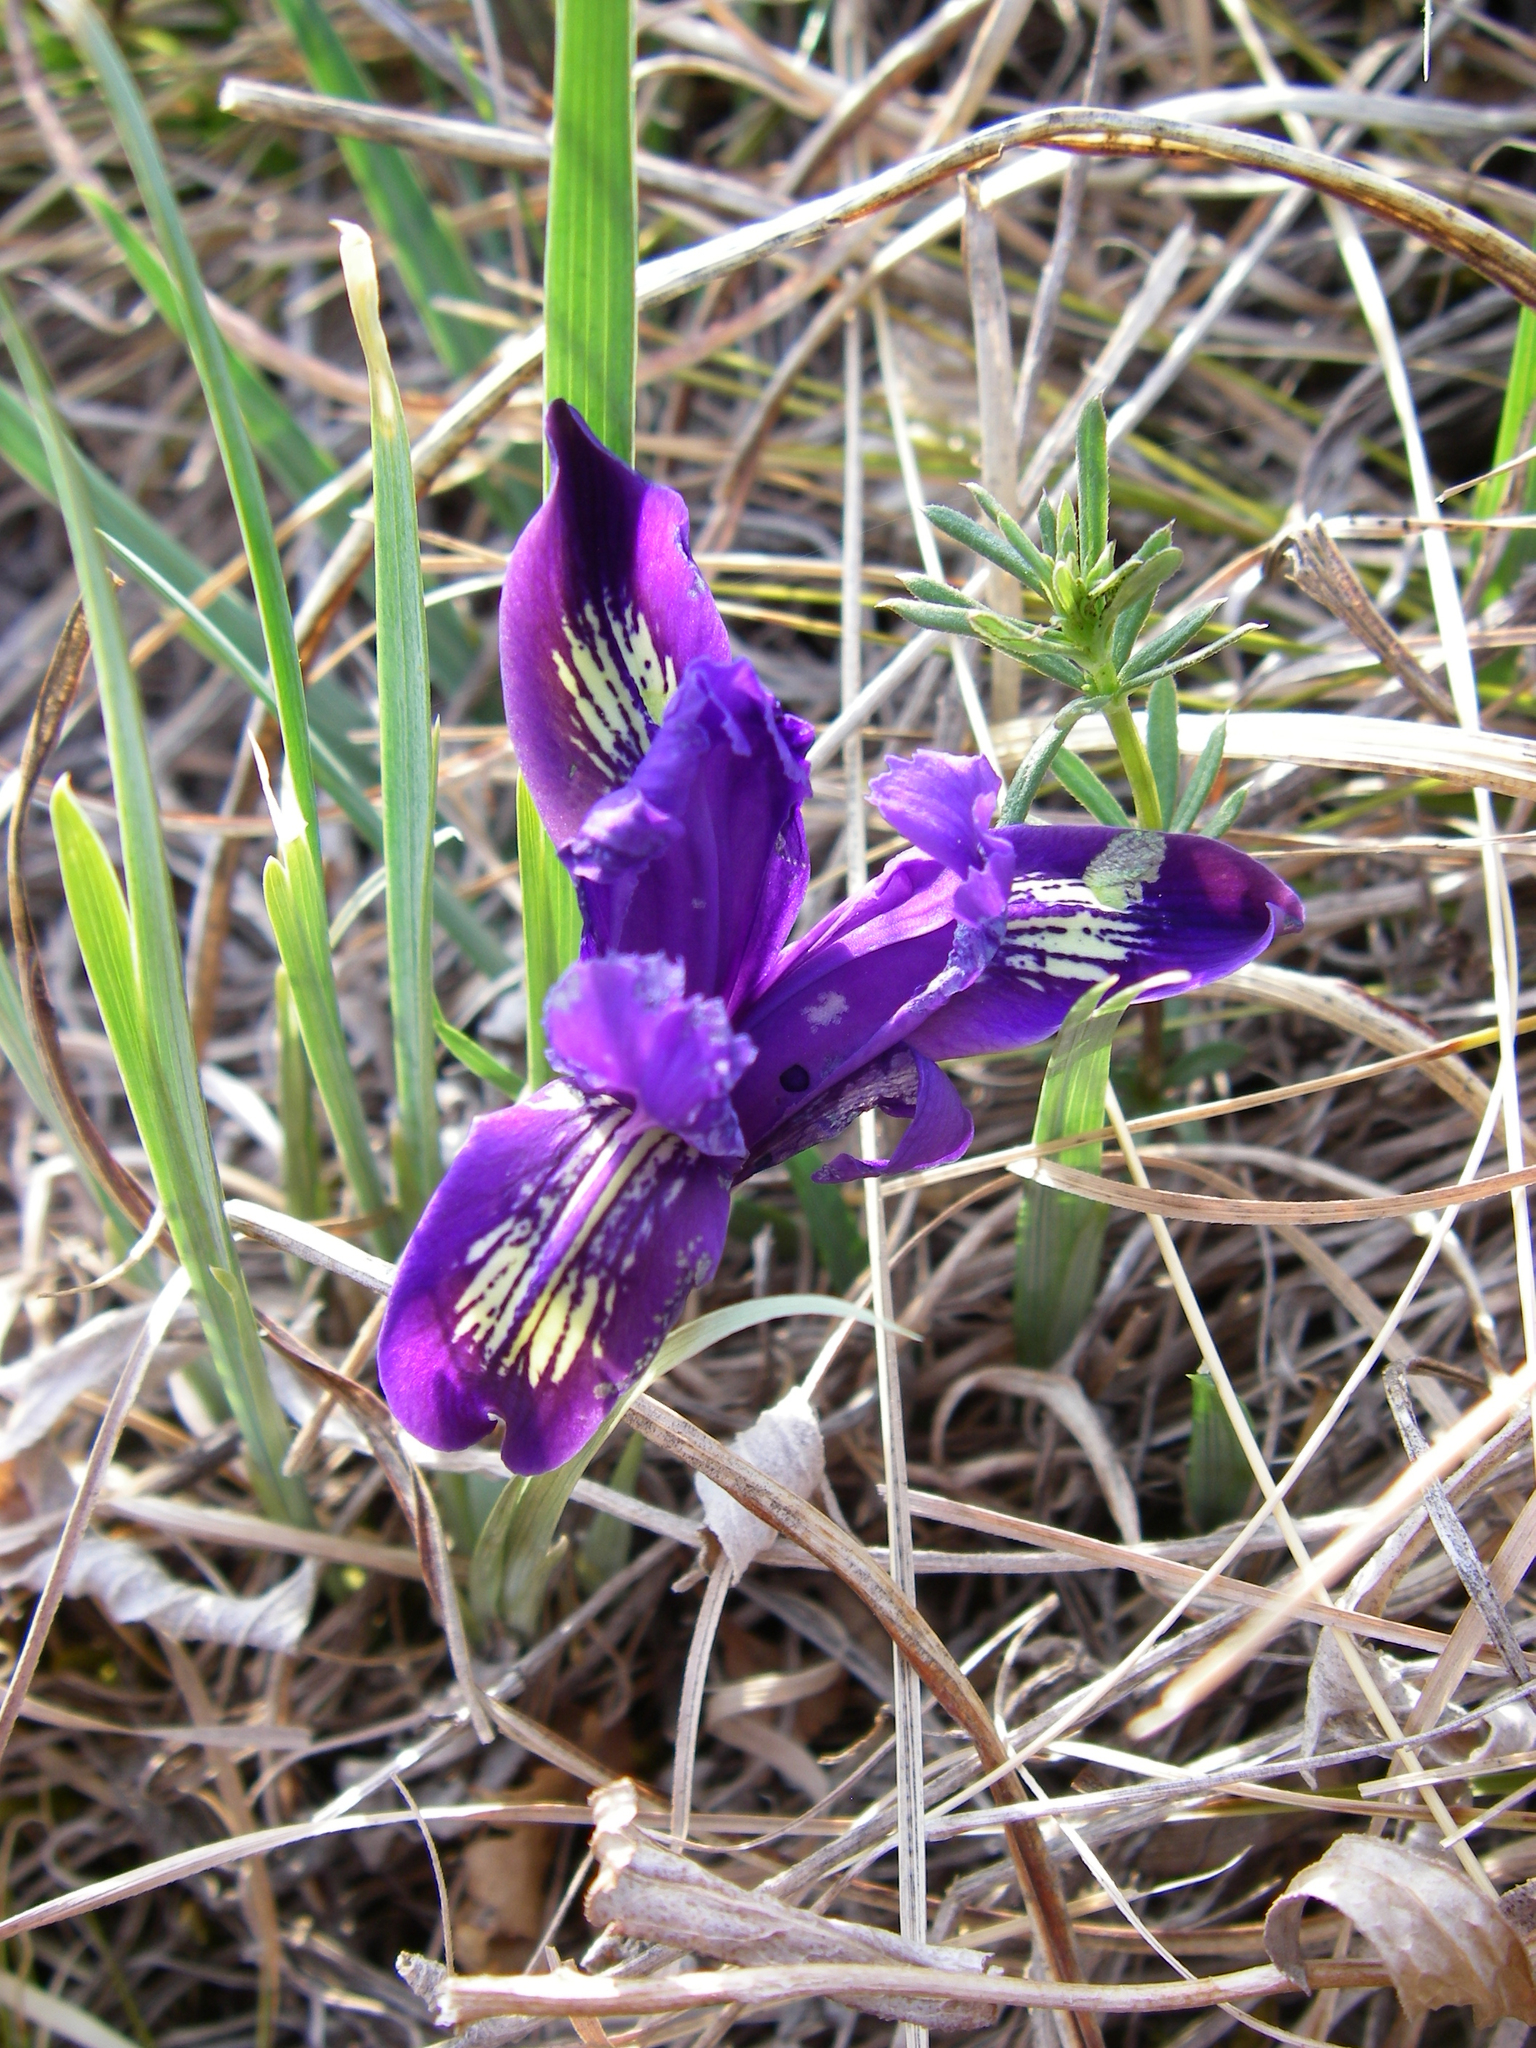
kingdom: Plantae
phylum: Tracheophyta
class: Liliopsida
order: Asparagales
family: Iridaceae
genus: Iris
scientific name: Iris ruthenica
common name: Purple-bract iris
